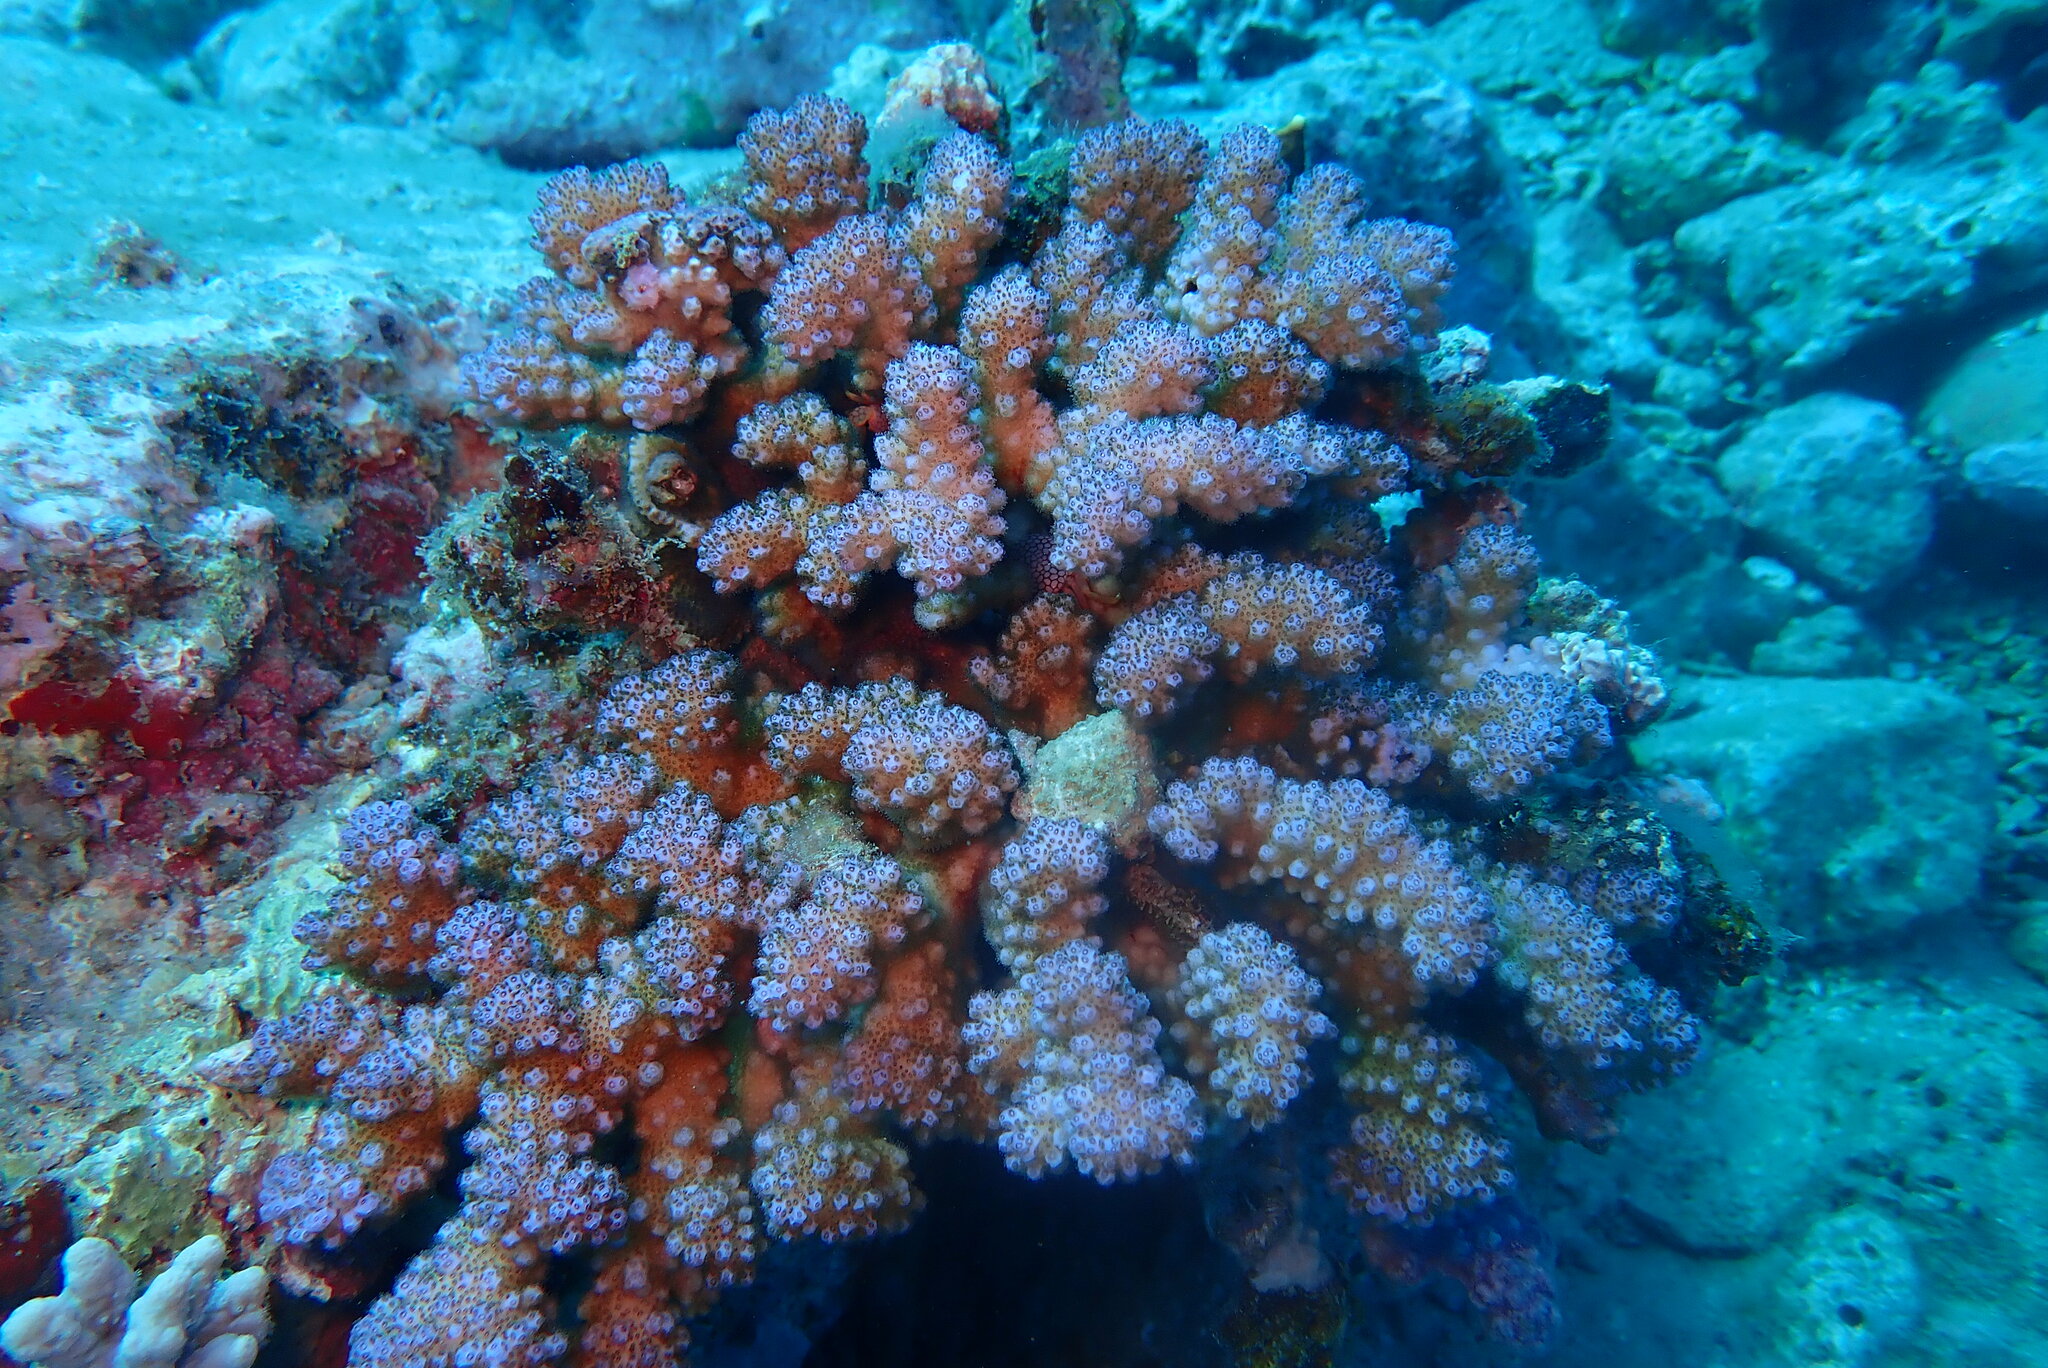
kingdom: Animalia
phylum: Cnidaria
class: Anthozoa
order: Scleractinia
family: Pocilloporidae
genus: Pocillopora
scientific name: Pocillopora verrucosa
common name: Cauliflower coral
